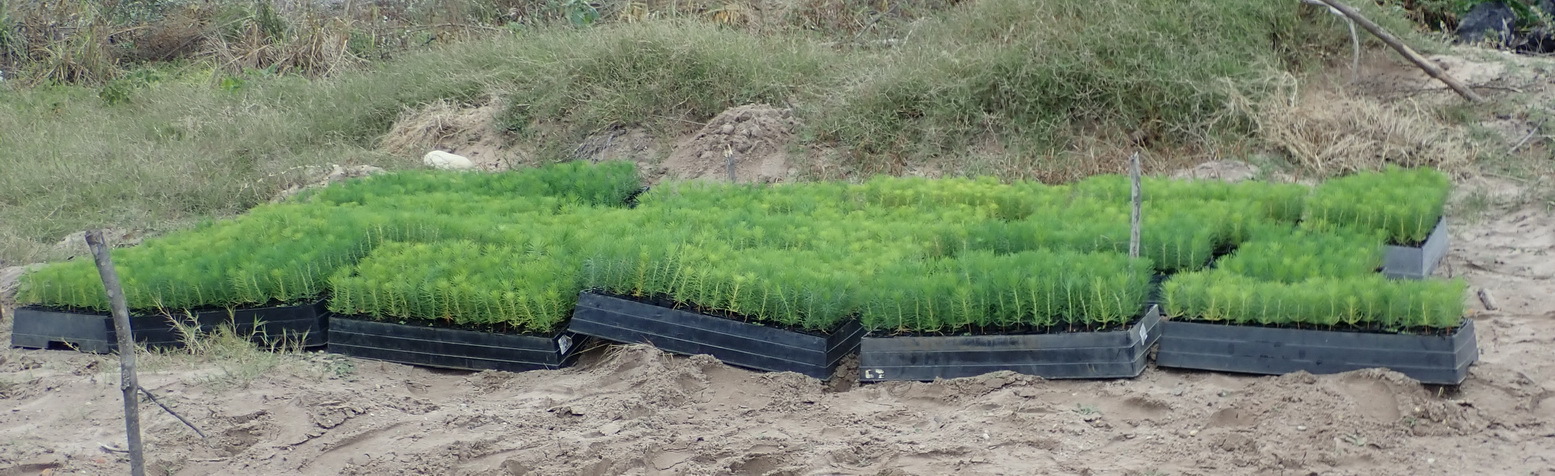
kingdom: Plantae
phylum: Tracheophyta
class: Pinopsida
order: Pinales
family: Pinaceae
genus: Pinus
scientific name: Pinus radiata
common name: Monterey pine
